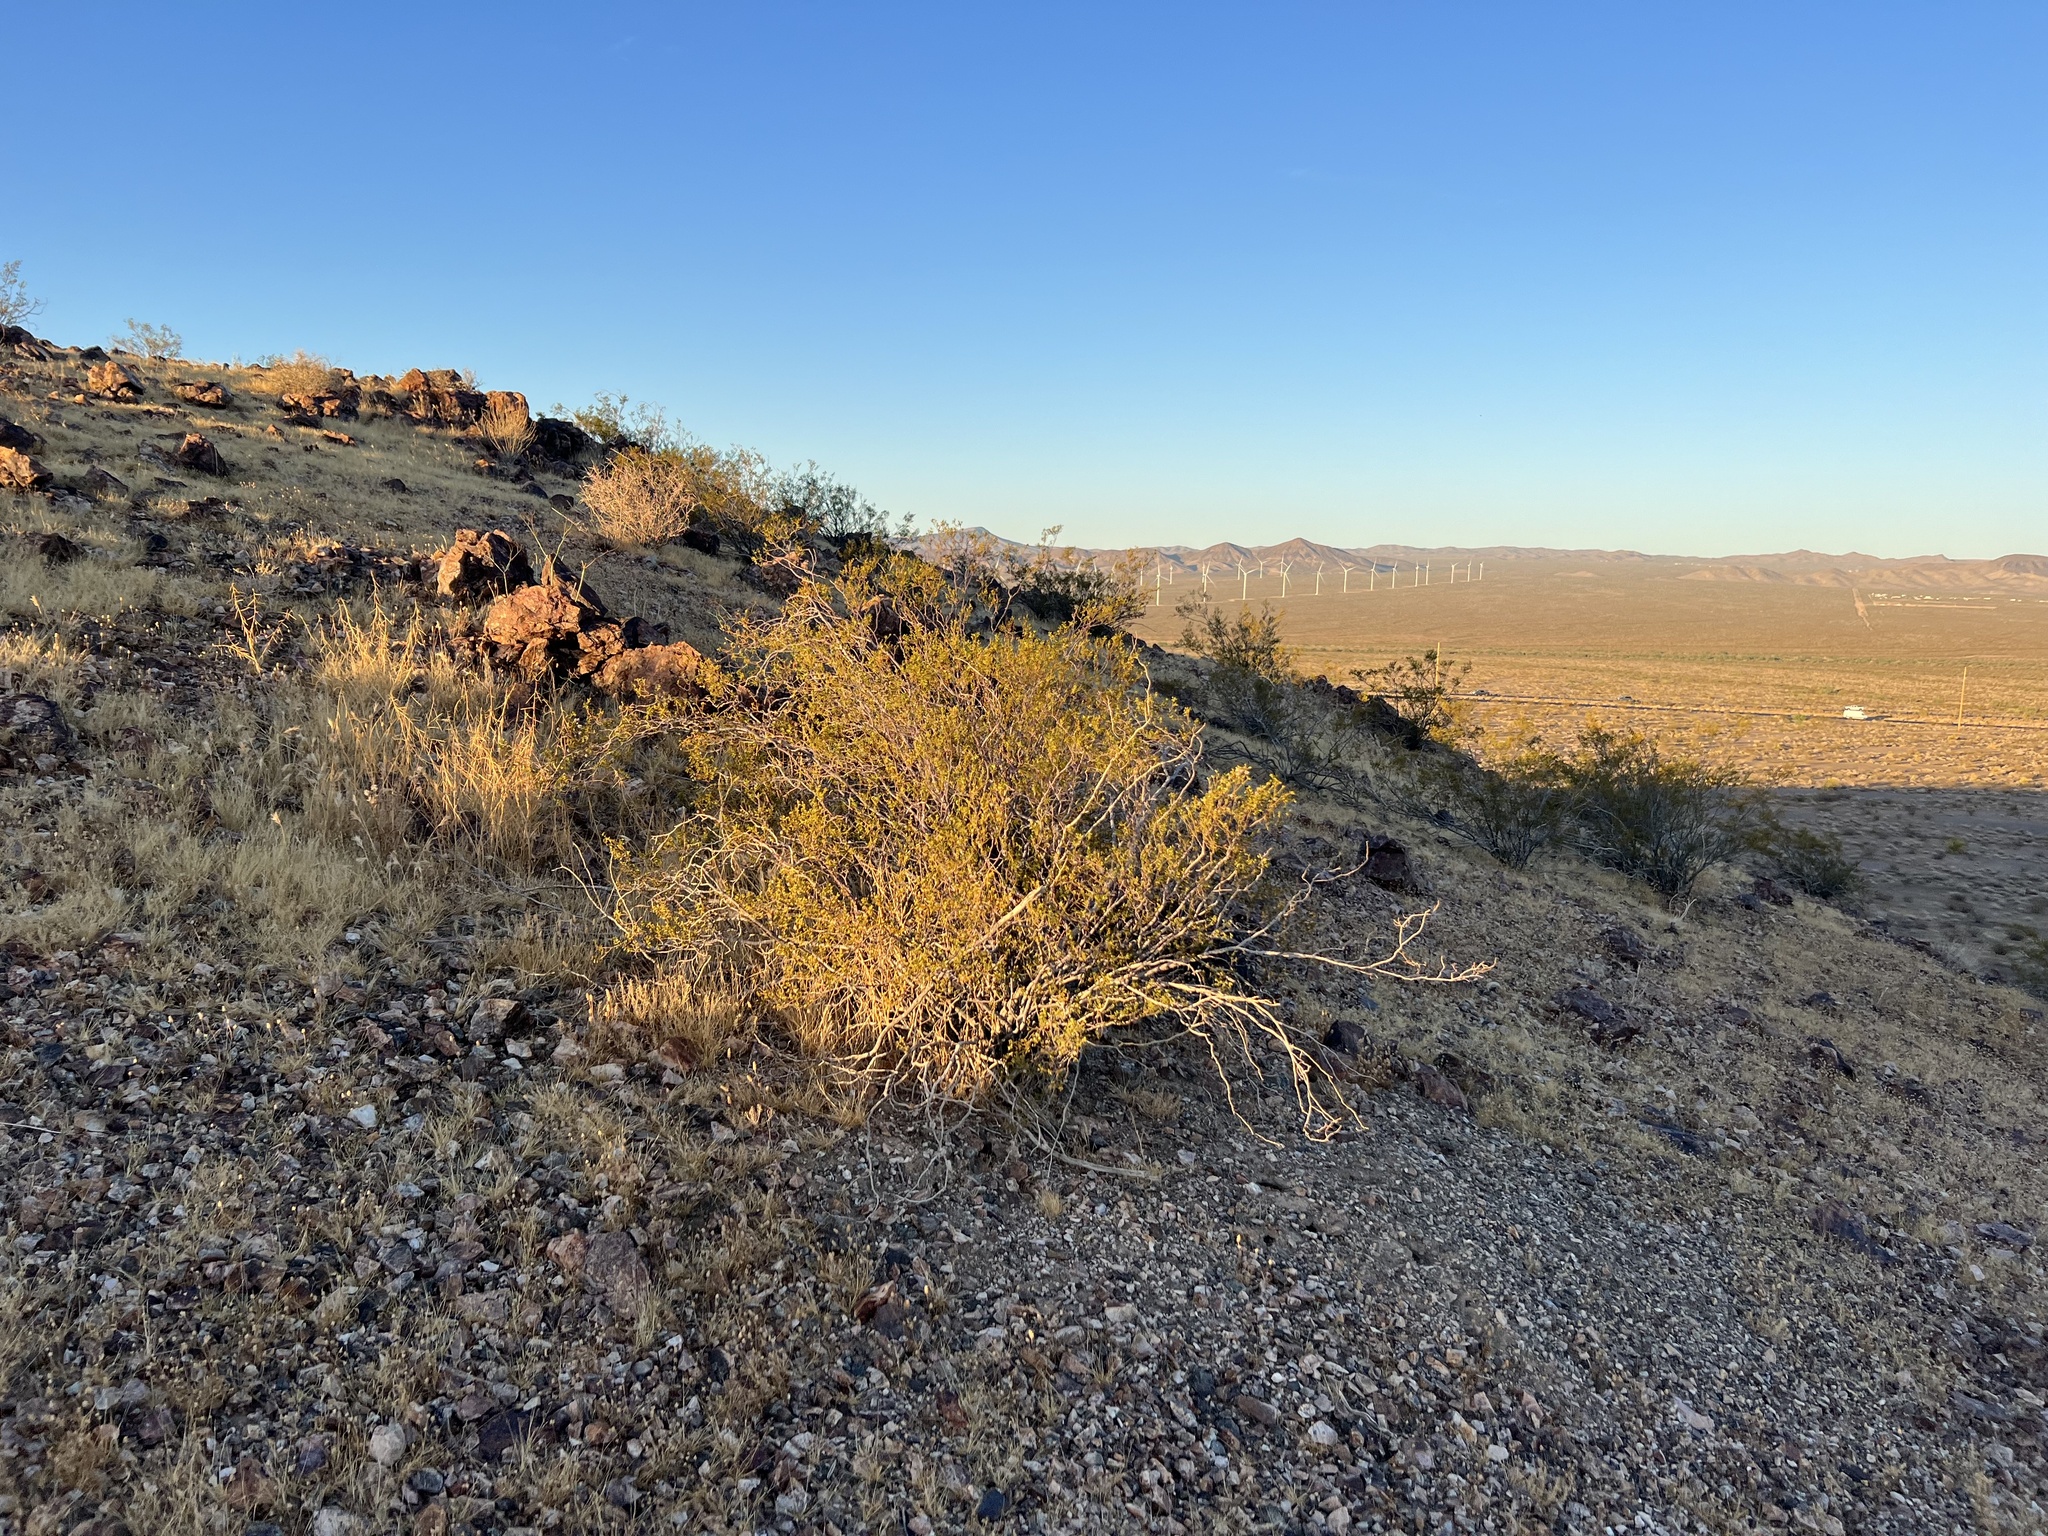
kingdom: Plantae
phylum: Tracheophyta
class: Magnoliopsida
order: Zygophyllales
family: Zygophyllaceae
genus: Larrea
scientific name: Larrea tridentata
